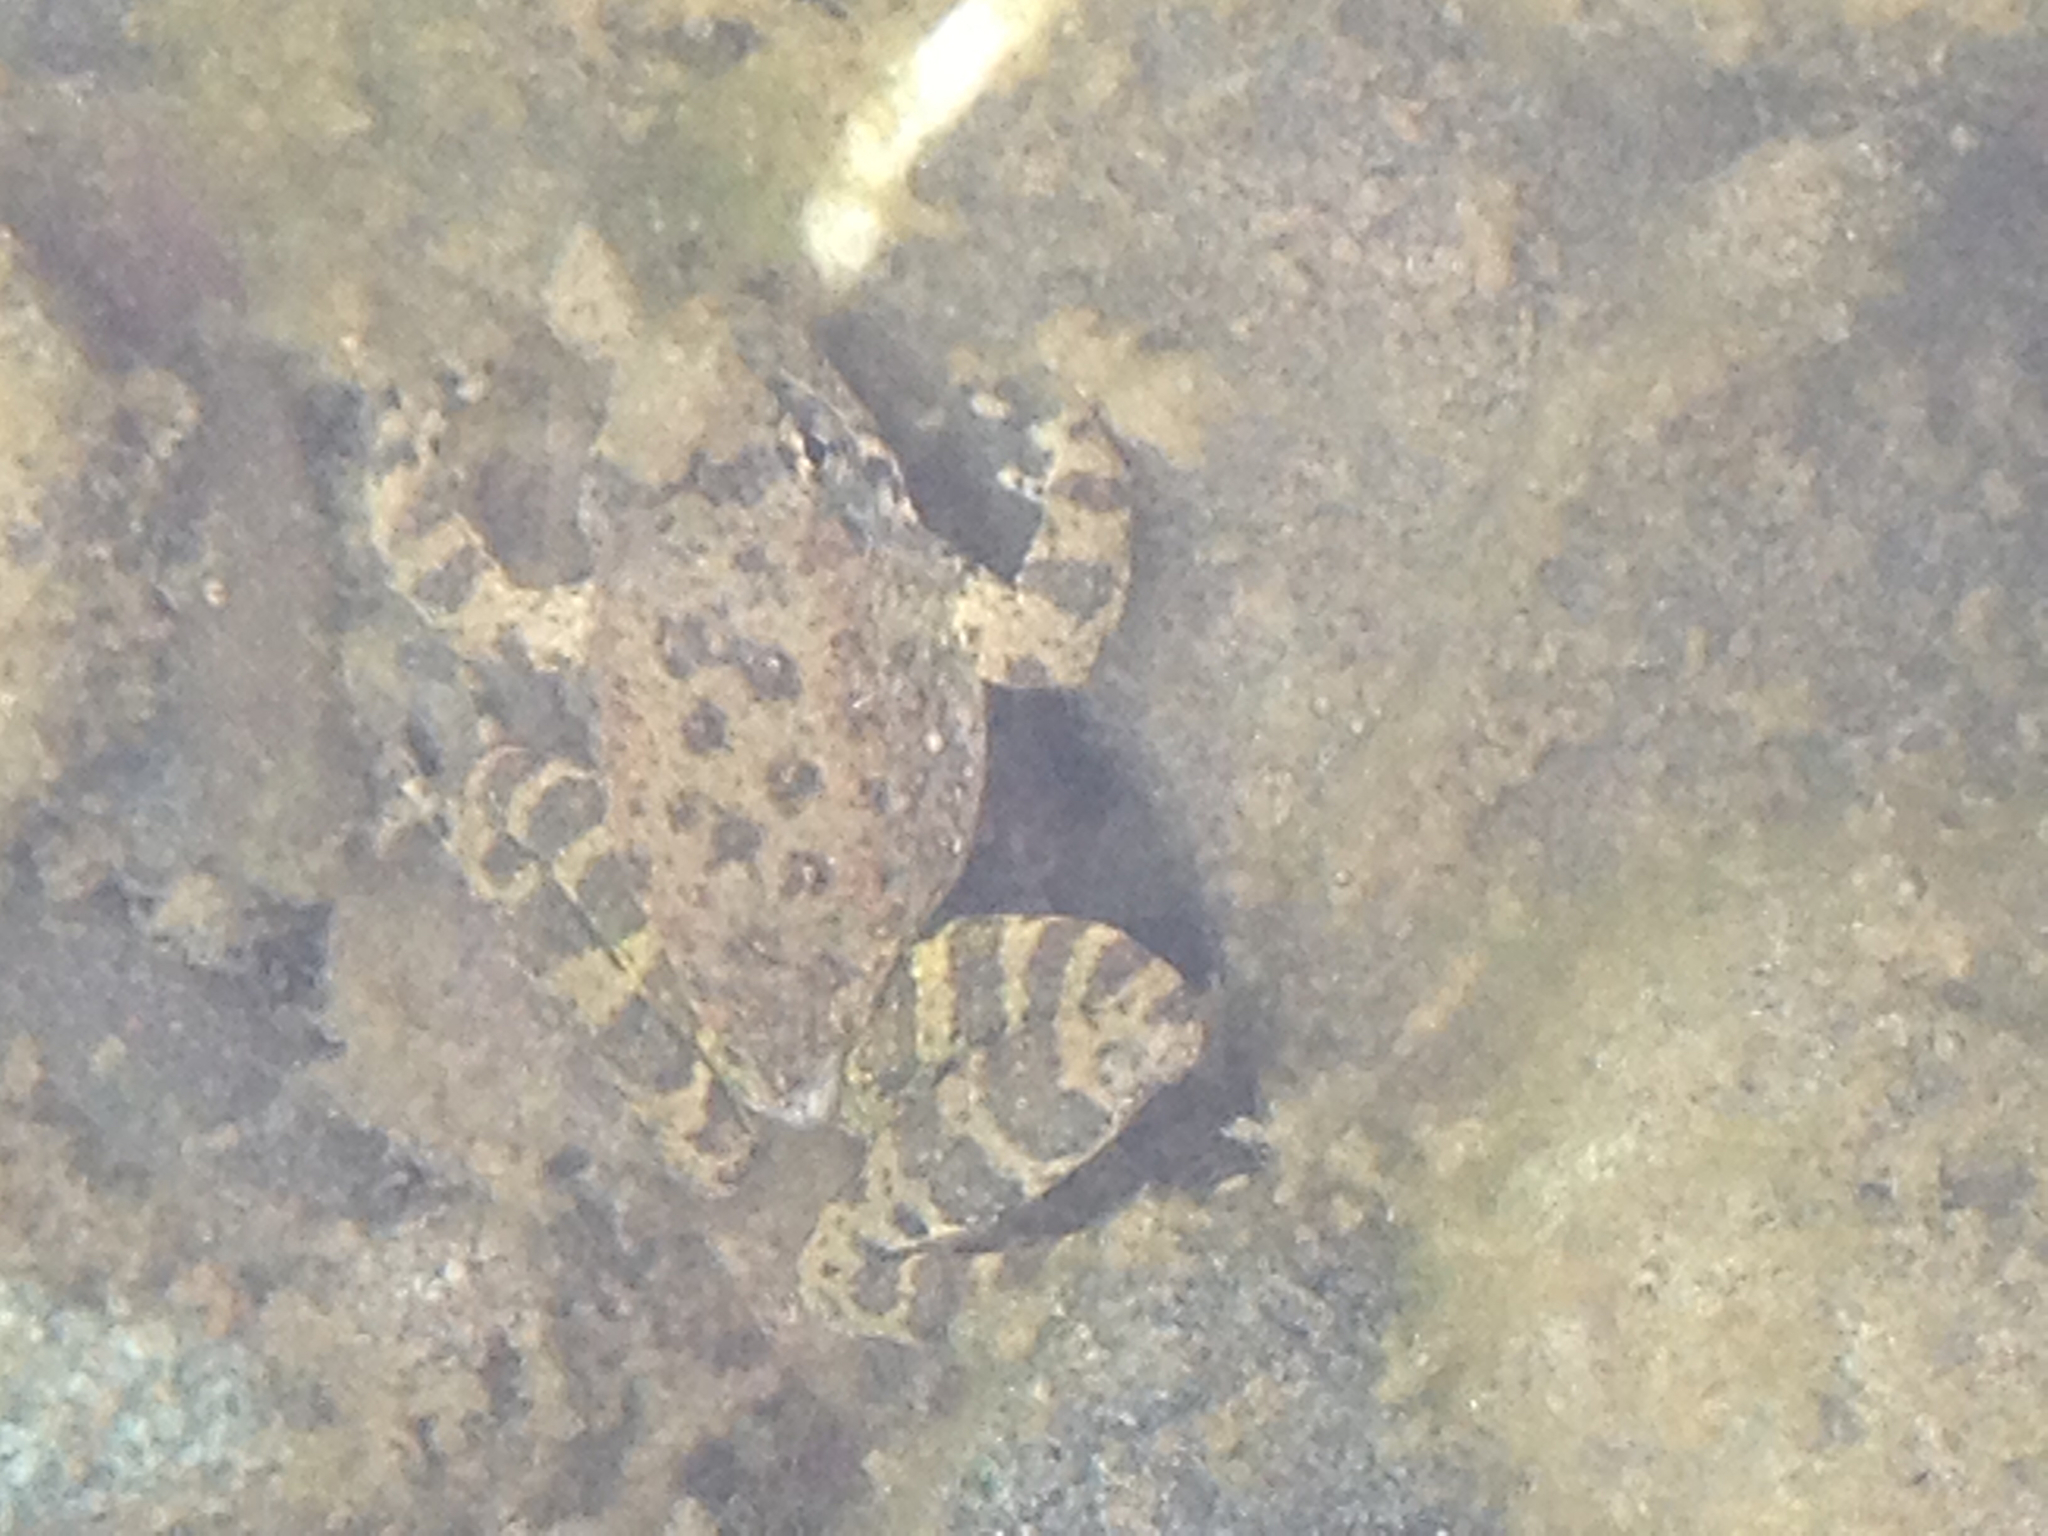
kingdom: Animalia
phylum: Chordata
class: Amphibia
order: Anura
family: Ranidae
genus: Rana
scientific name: Rana boylii
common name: Foothill yellow-legged frog
